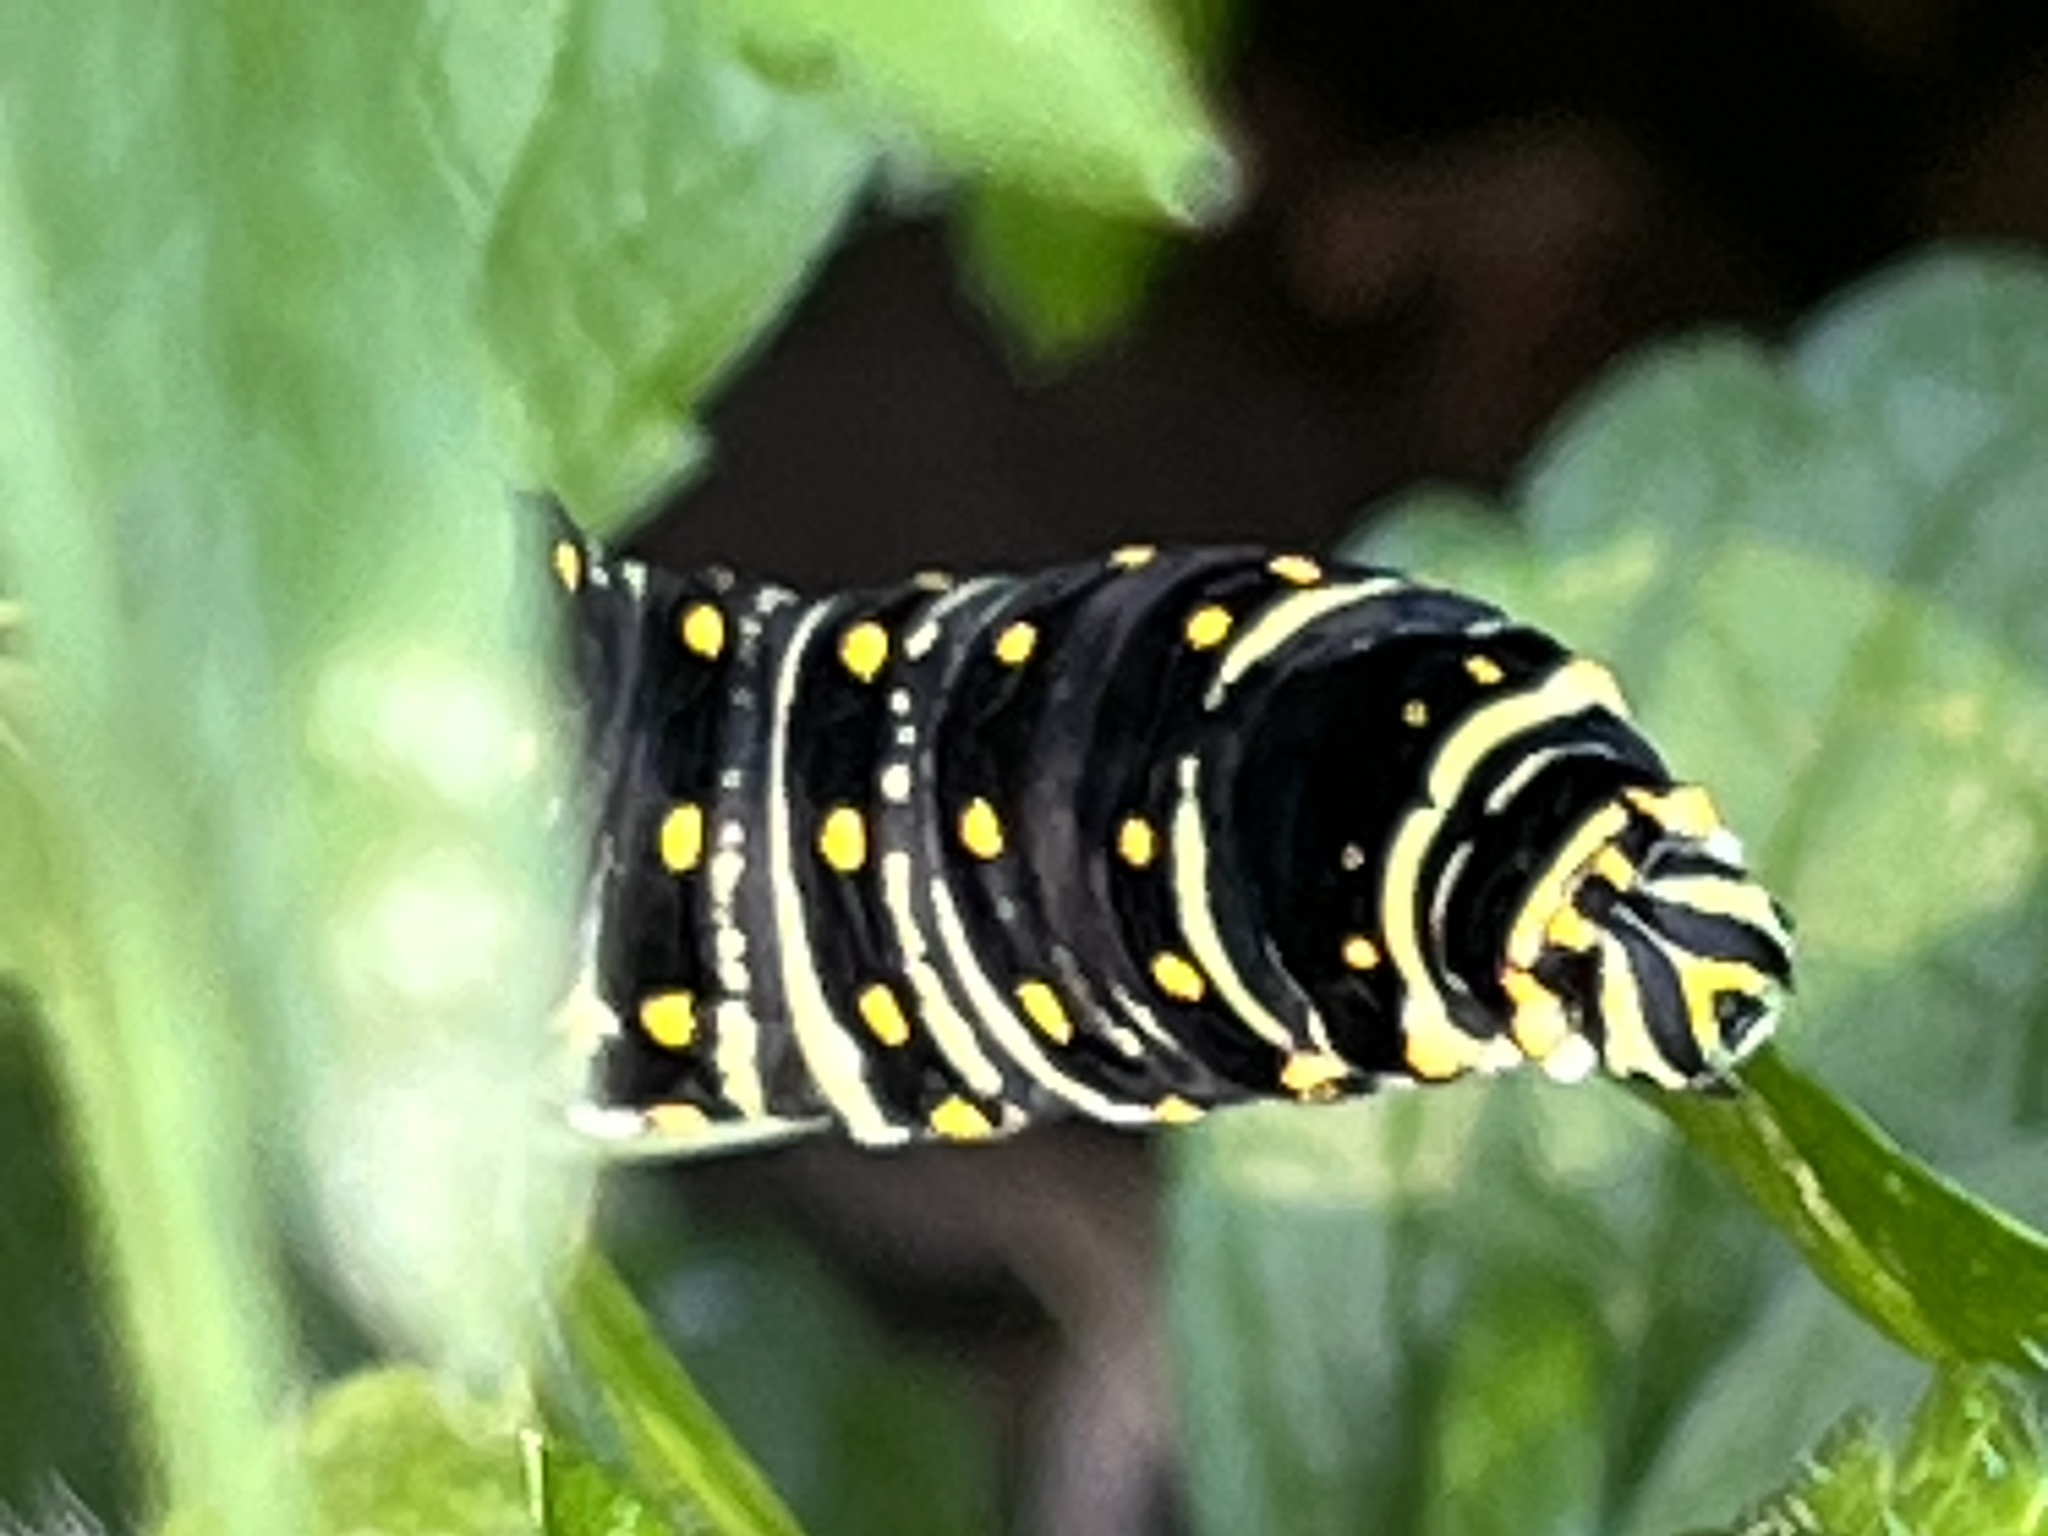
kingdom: Animalia
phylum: Arthropoda
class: Insecta
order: Lepidoptera
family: Papilionidae
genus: Papilio
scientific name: Papilio polyxenes
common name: Black swallowtail
